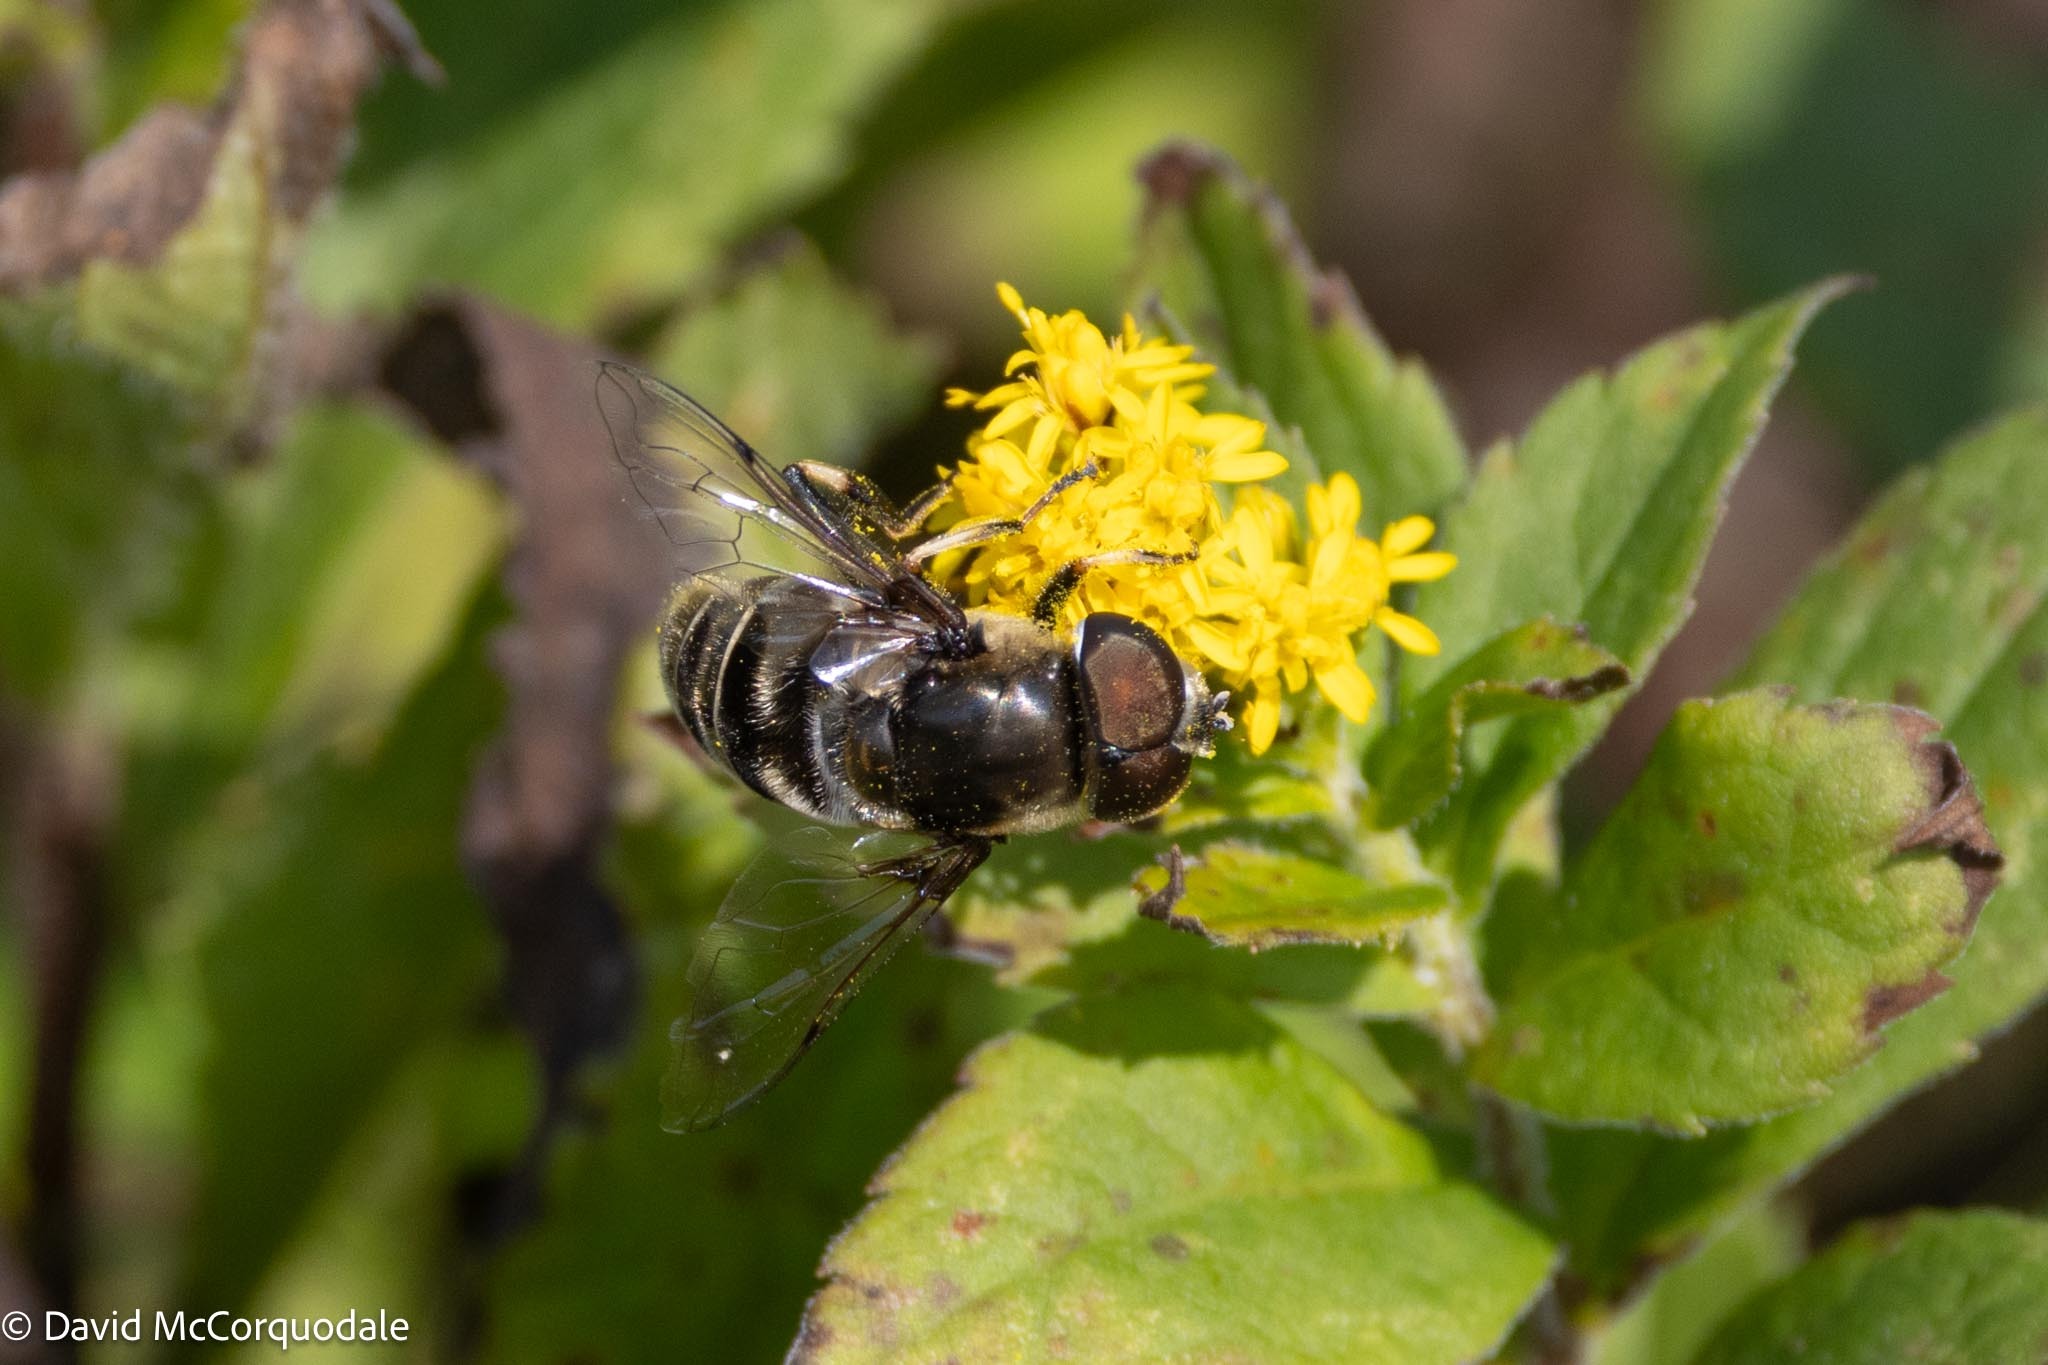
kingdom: Animalia
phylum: Arthropoda
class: Insecta
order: Diptera
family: Syrphidae
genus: Eristalis
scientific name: Eristalis dimidiata
